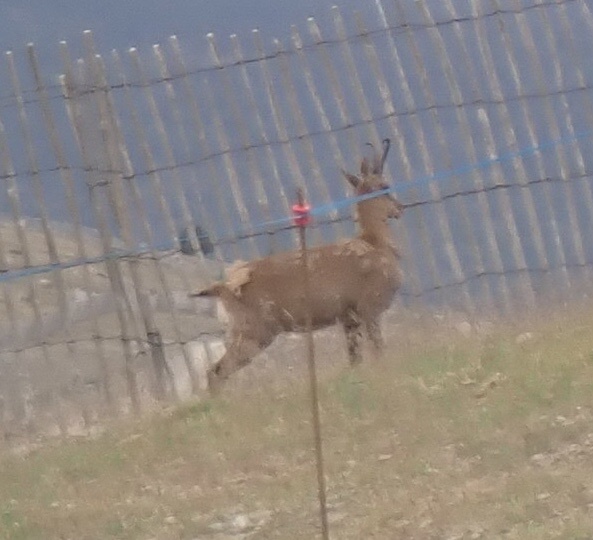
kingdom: Animalia
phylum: Chordata
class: Mammalia
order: Artiodactyla
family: Bovidae
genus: Rupicapra
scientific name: Rupicapra pyrenaica
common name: Pyrenean chamois
